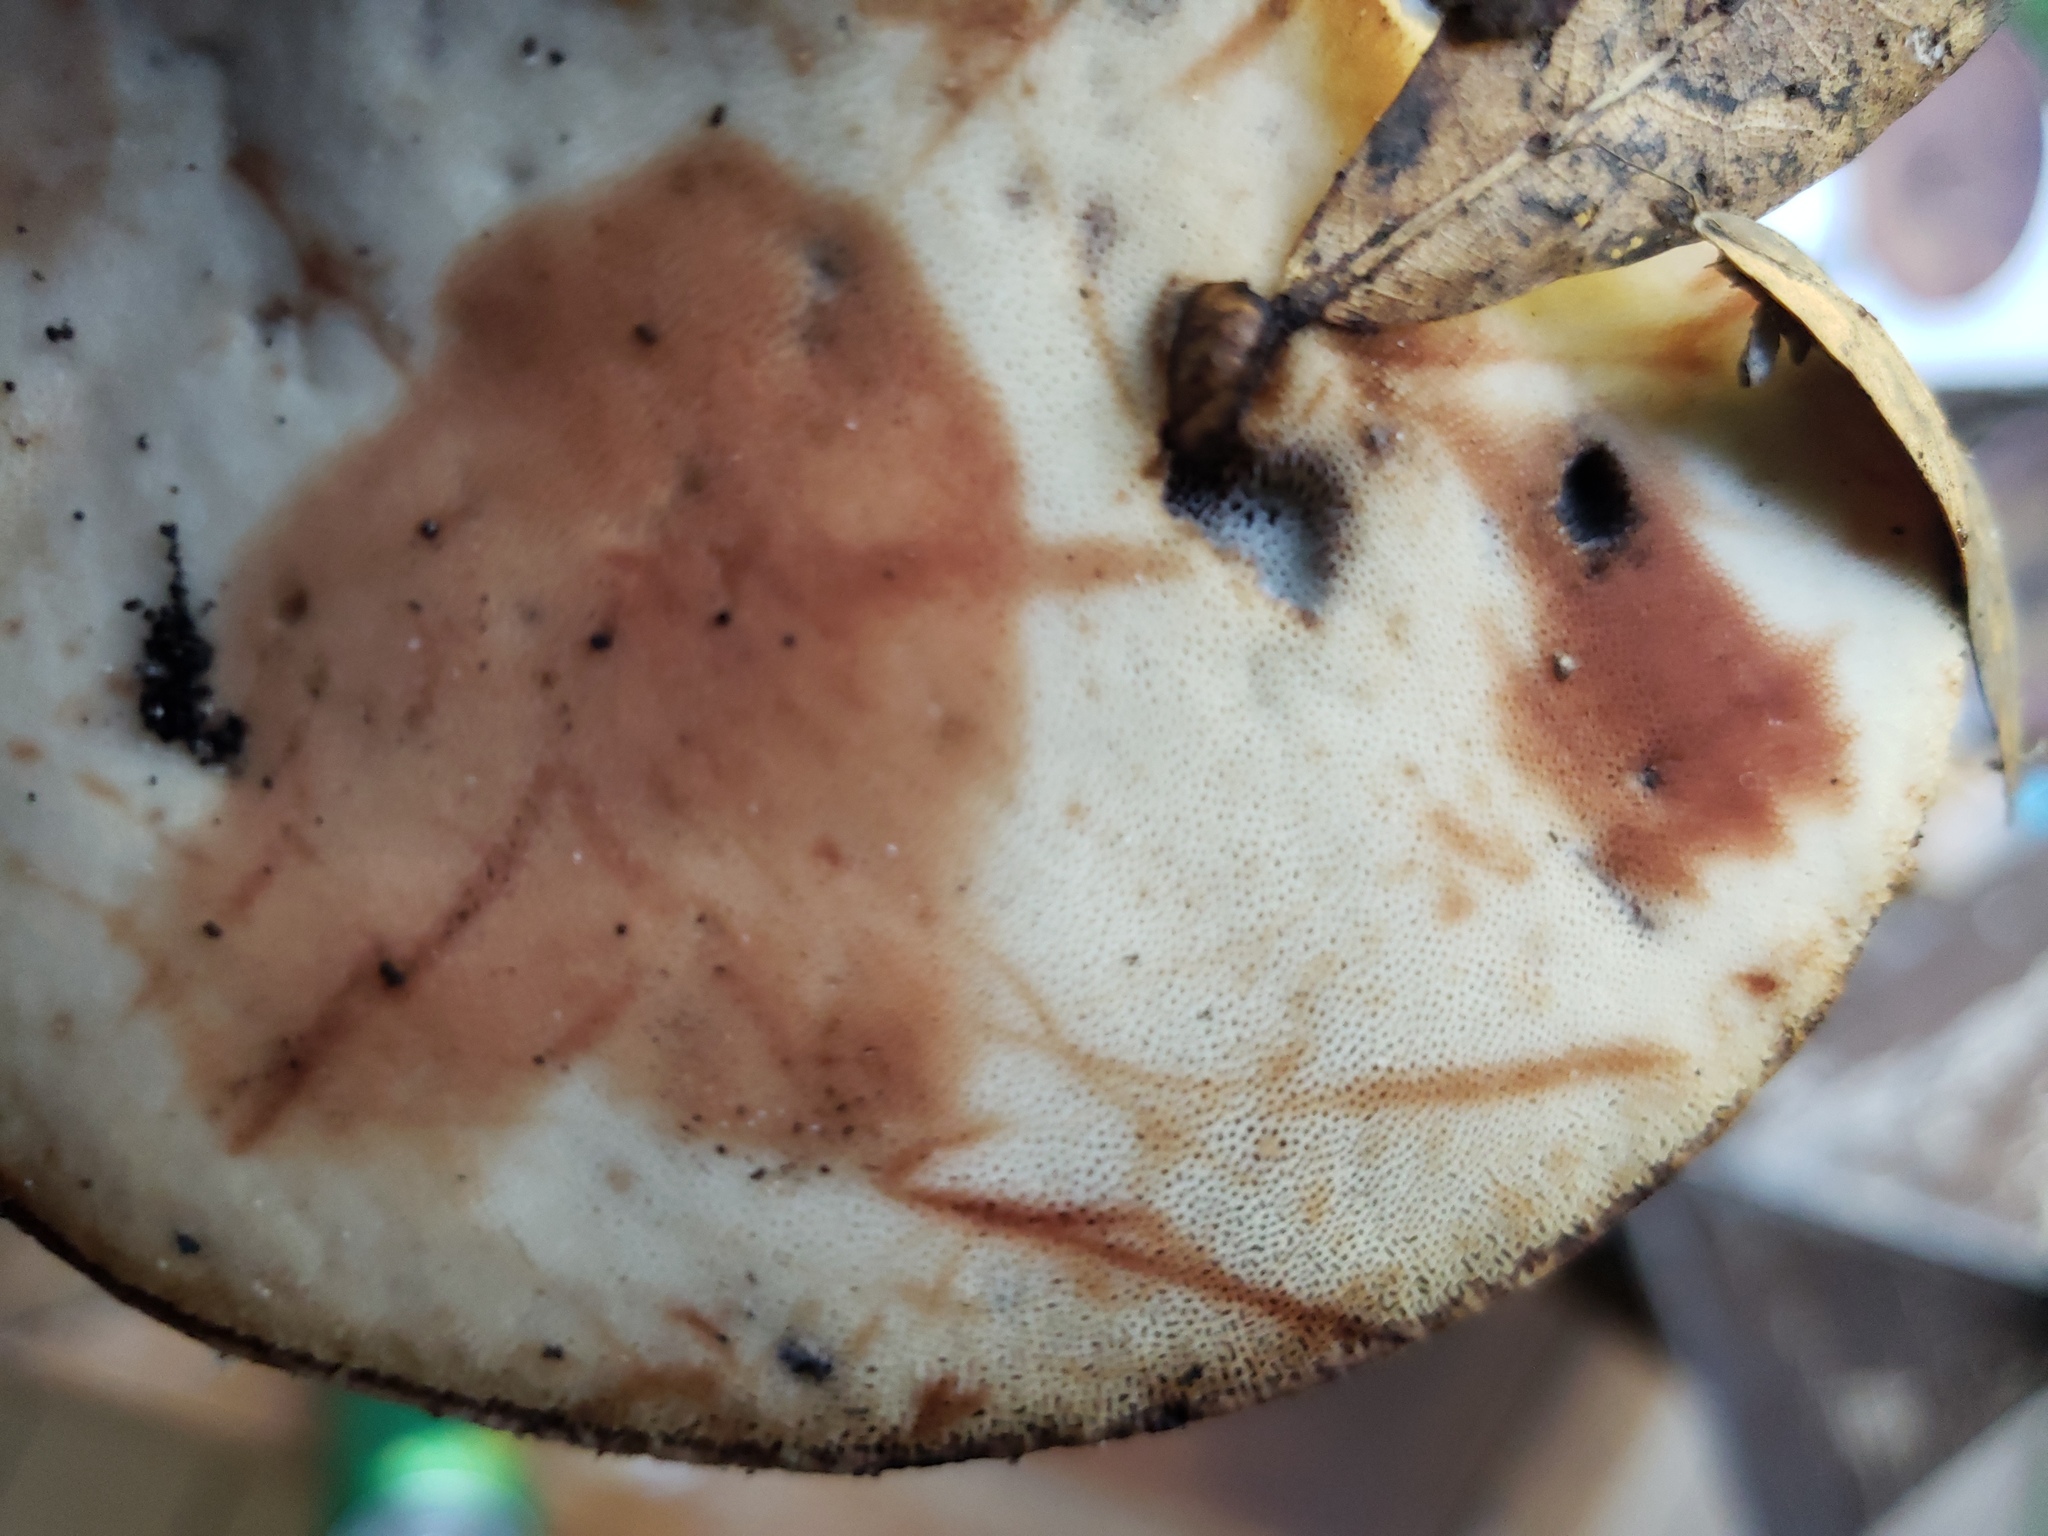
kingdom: Fungi
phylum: Basidiomycota
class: Agaricomycetes
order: Polyporales
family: Laetiporaceae
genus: Berkcurtia
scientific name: Berkcurtia persicina
